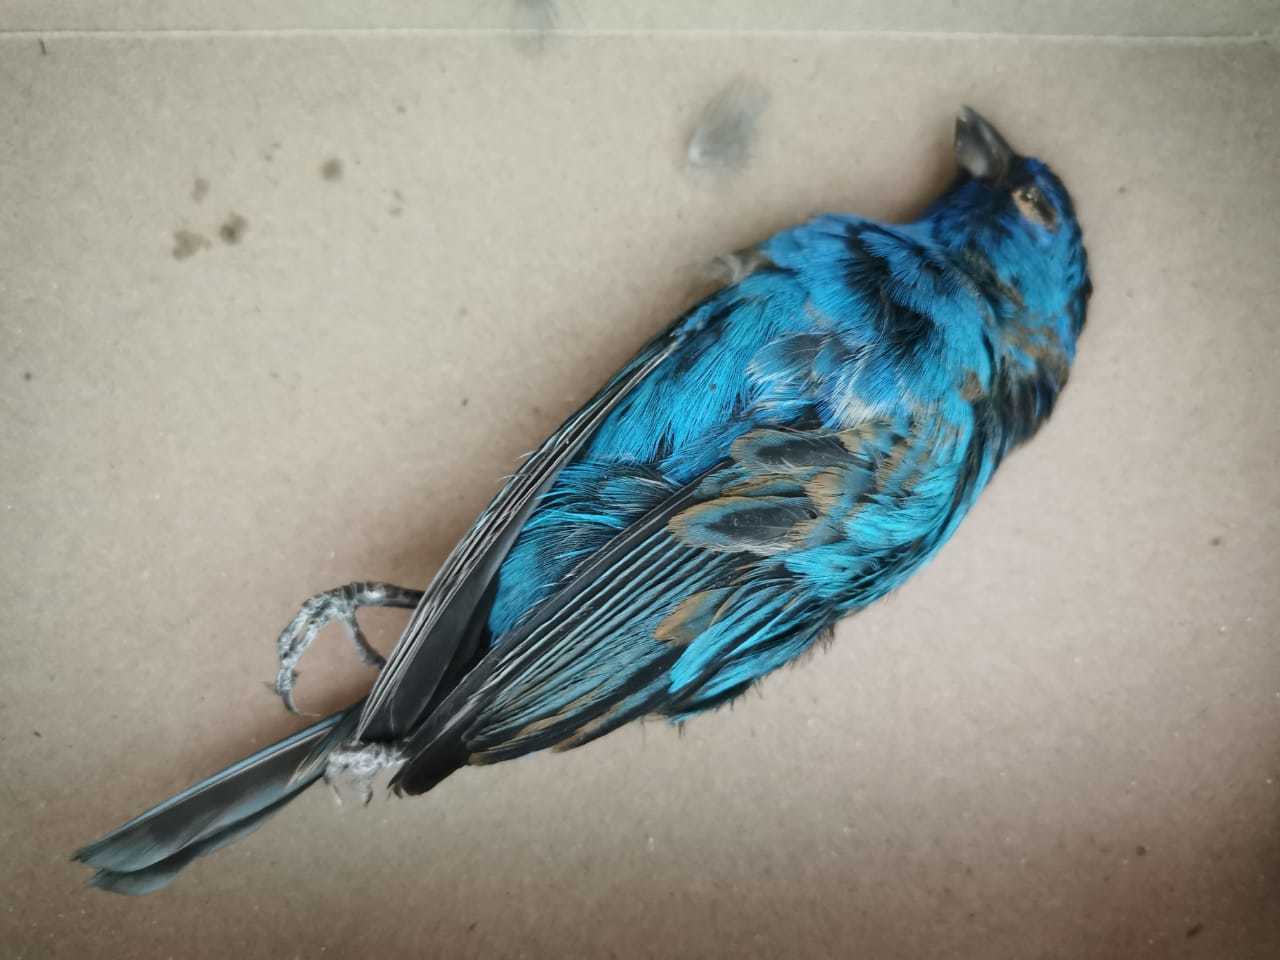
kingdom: Animalia
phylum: Chordata
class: Aves
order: Passeriformes
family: Cardinalidae
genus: Passerina
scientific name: Passerina cyanea
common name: Indigo bunting
